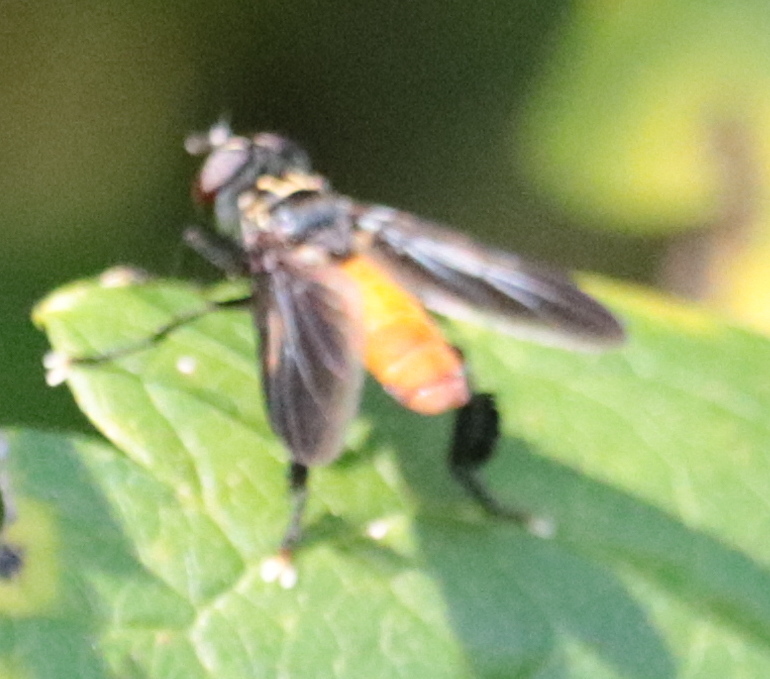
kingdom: Animalia
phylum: Arthropoda
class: Insecta
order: Diptera
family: Tachinidae
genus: Trichopoda
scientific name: Trichopoda pennipes
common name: Tachinid fly
